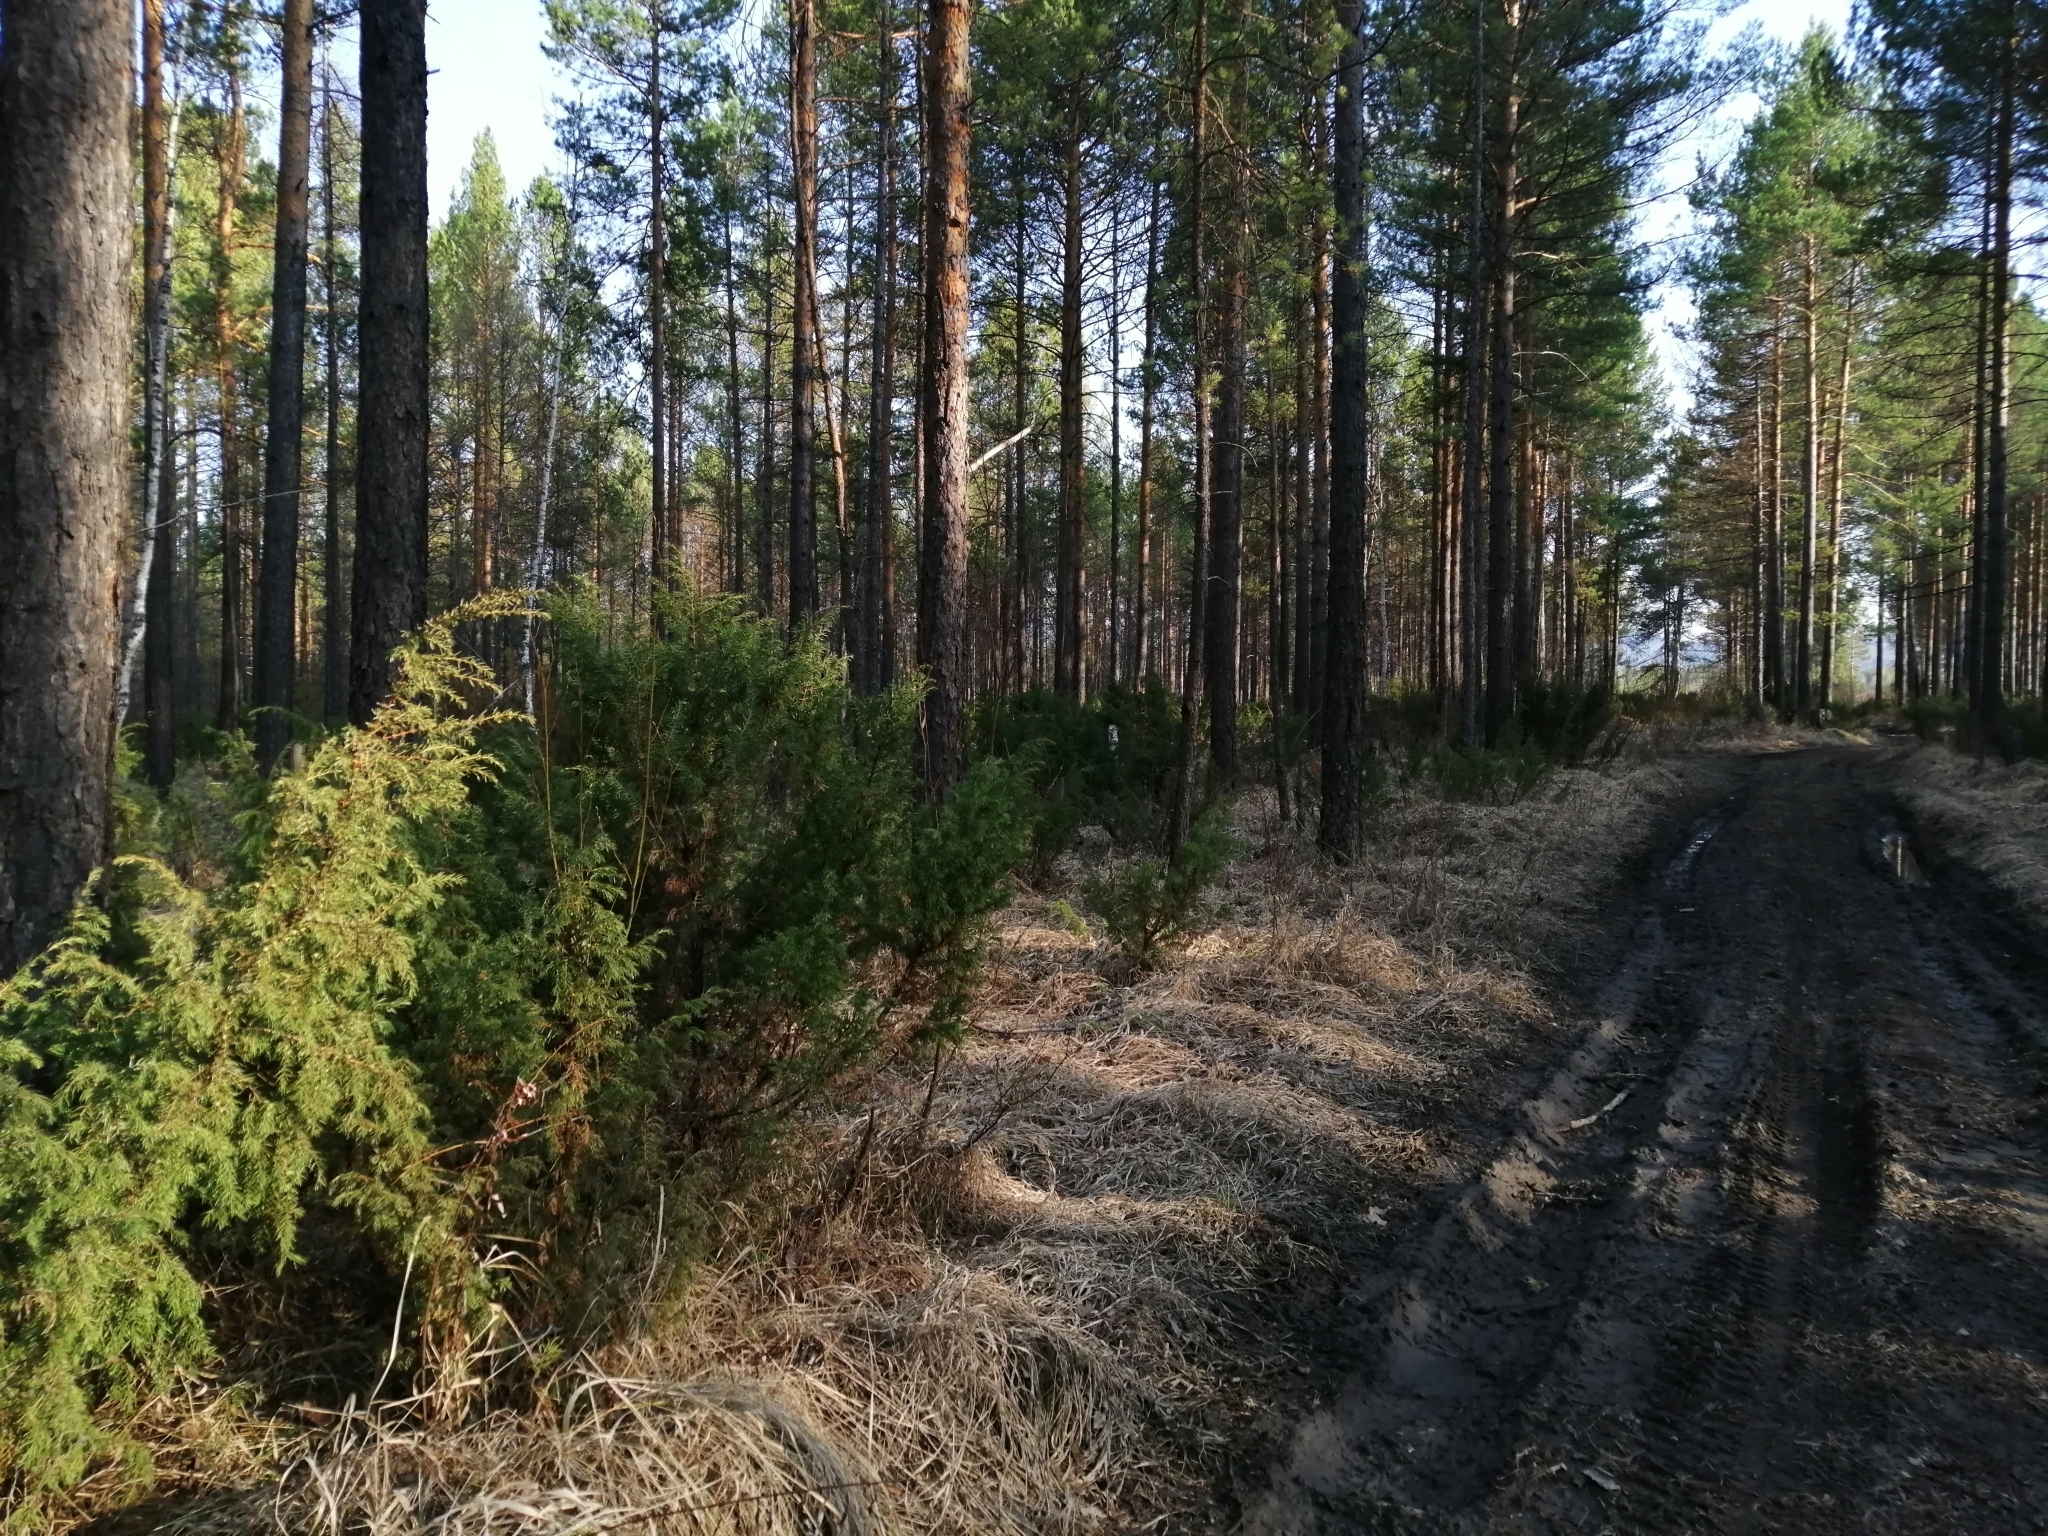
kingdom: Plantae
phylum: Tracheophyta
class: Pinopsida
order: Pinales
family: Cupressaceae
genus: Juniperus
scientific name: Juniperus communis
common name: Common juniper
